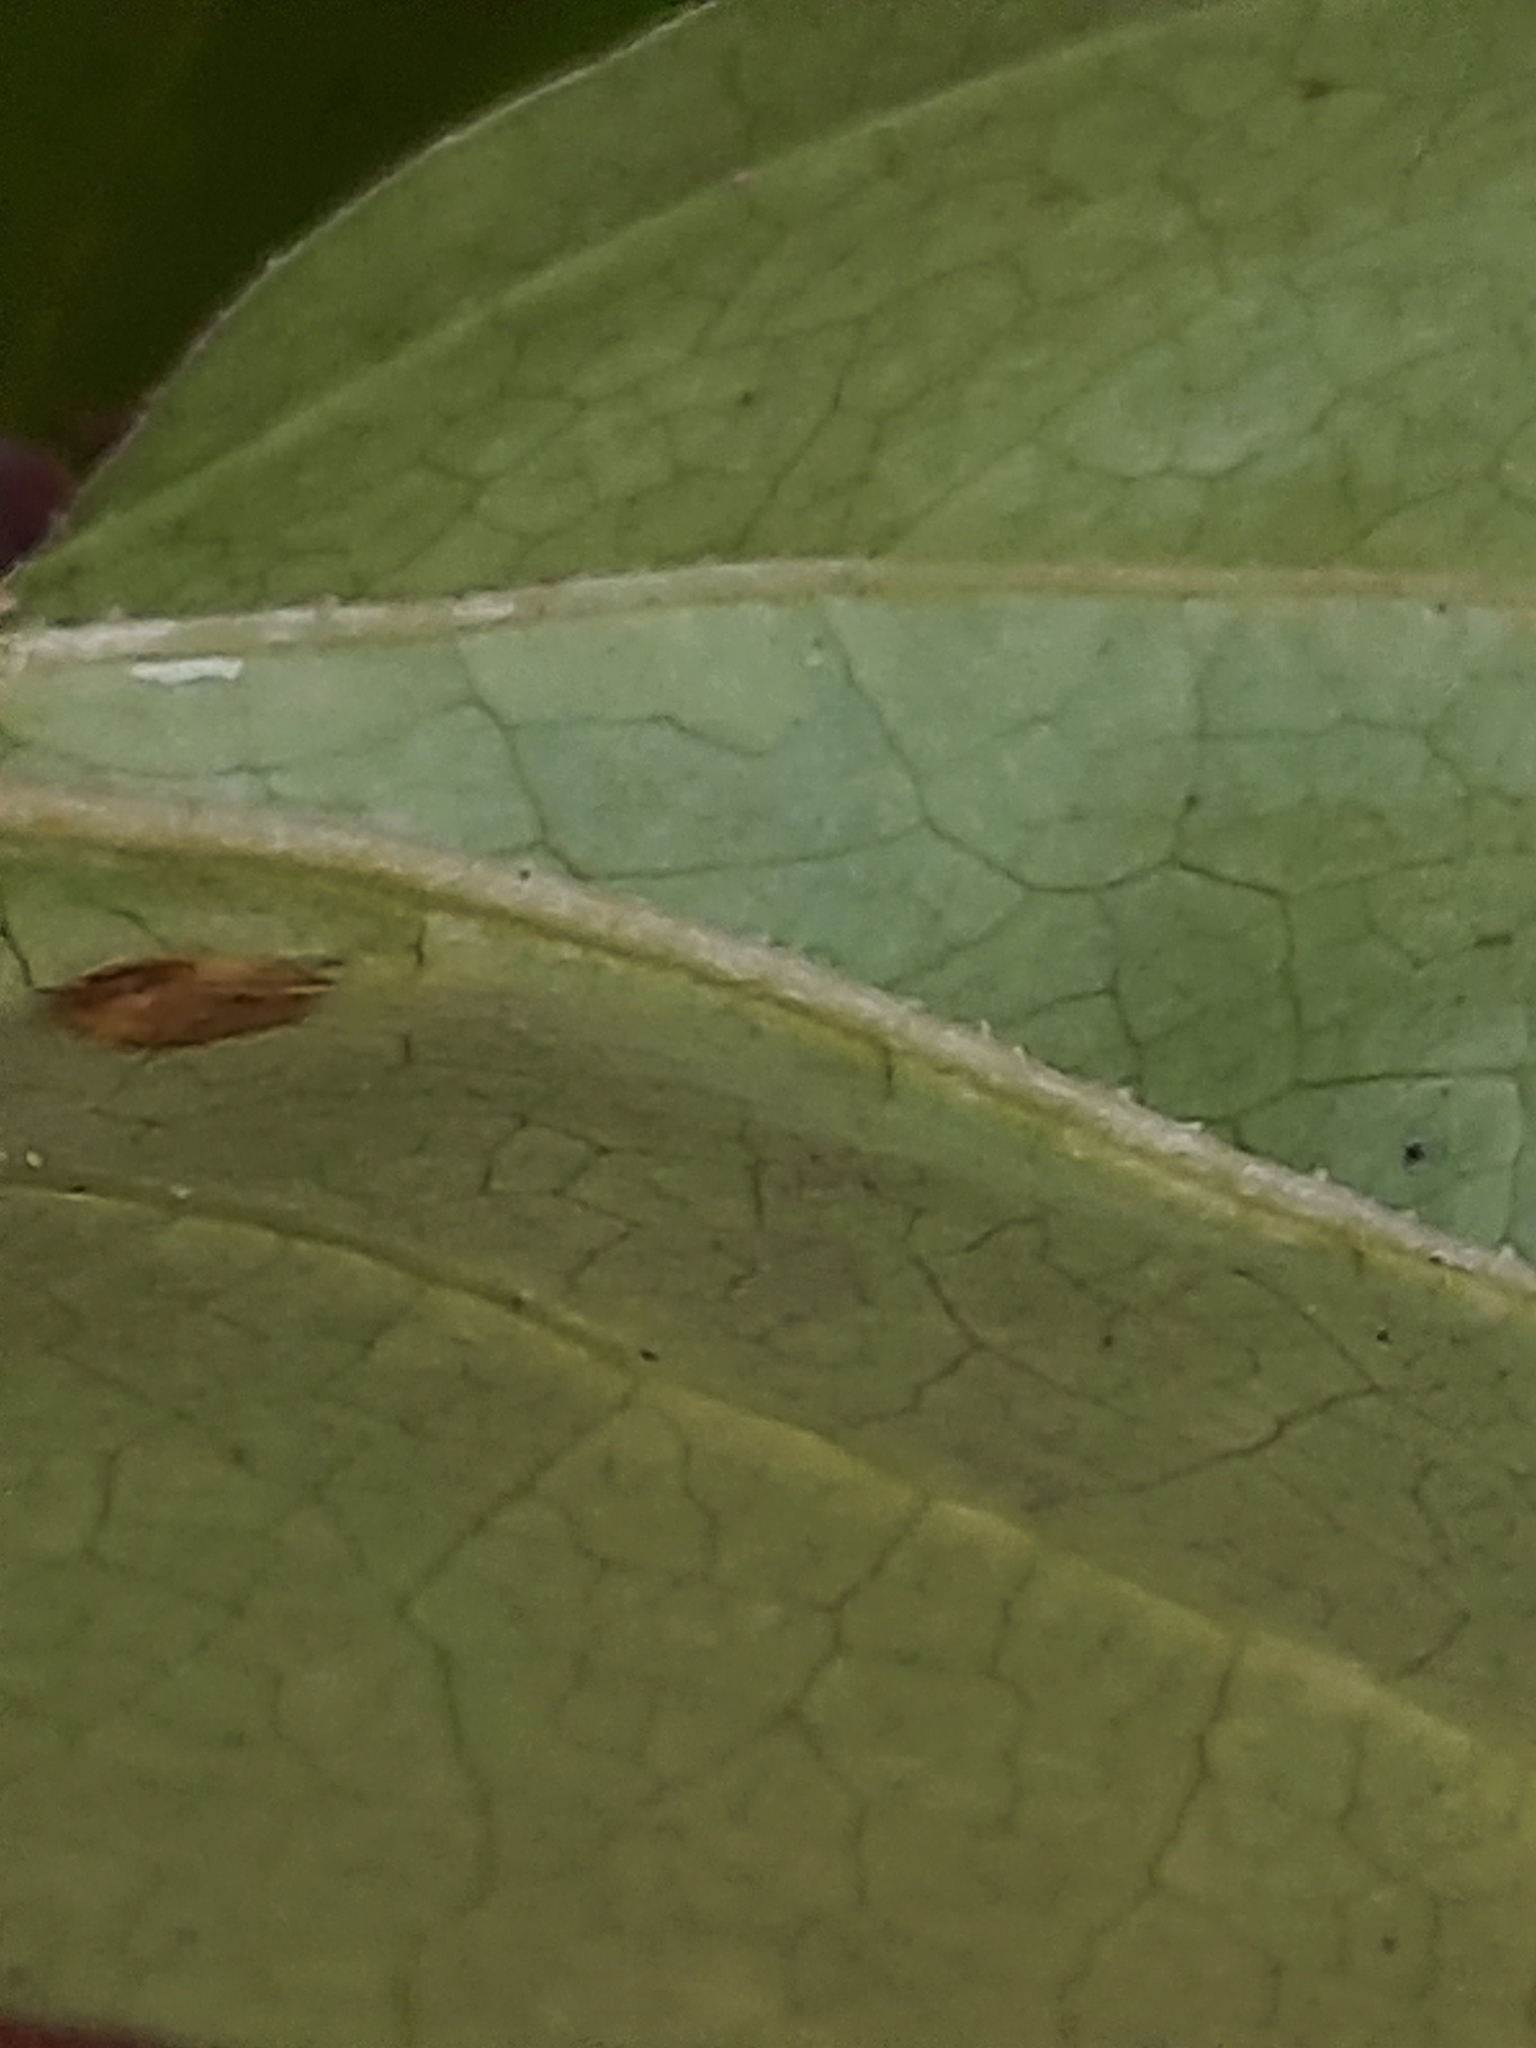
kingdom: Plantae
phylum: Tracheophyta
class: Liliopsida
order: Liliales
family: Smilacaceae
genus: Smilax
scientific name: Smilax rotundifolia
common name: Bullbriar
